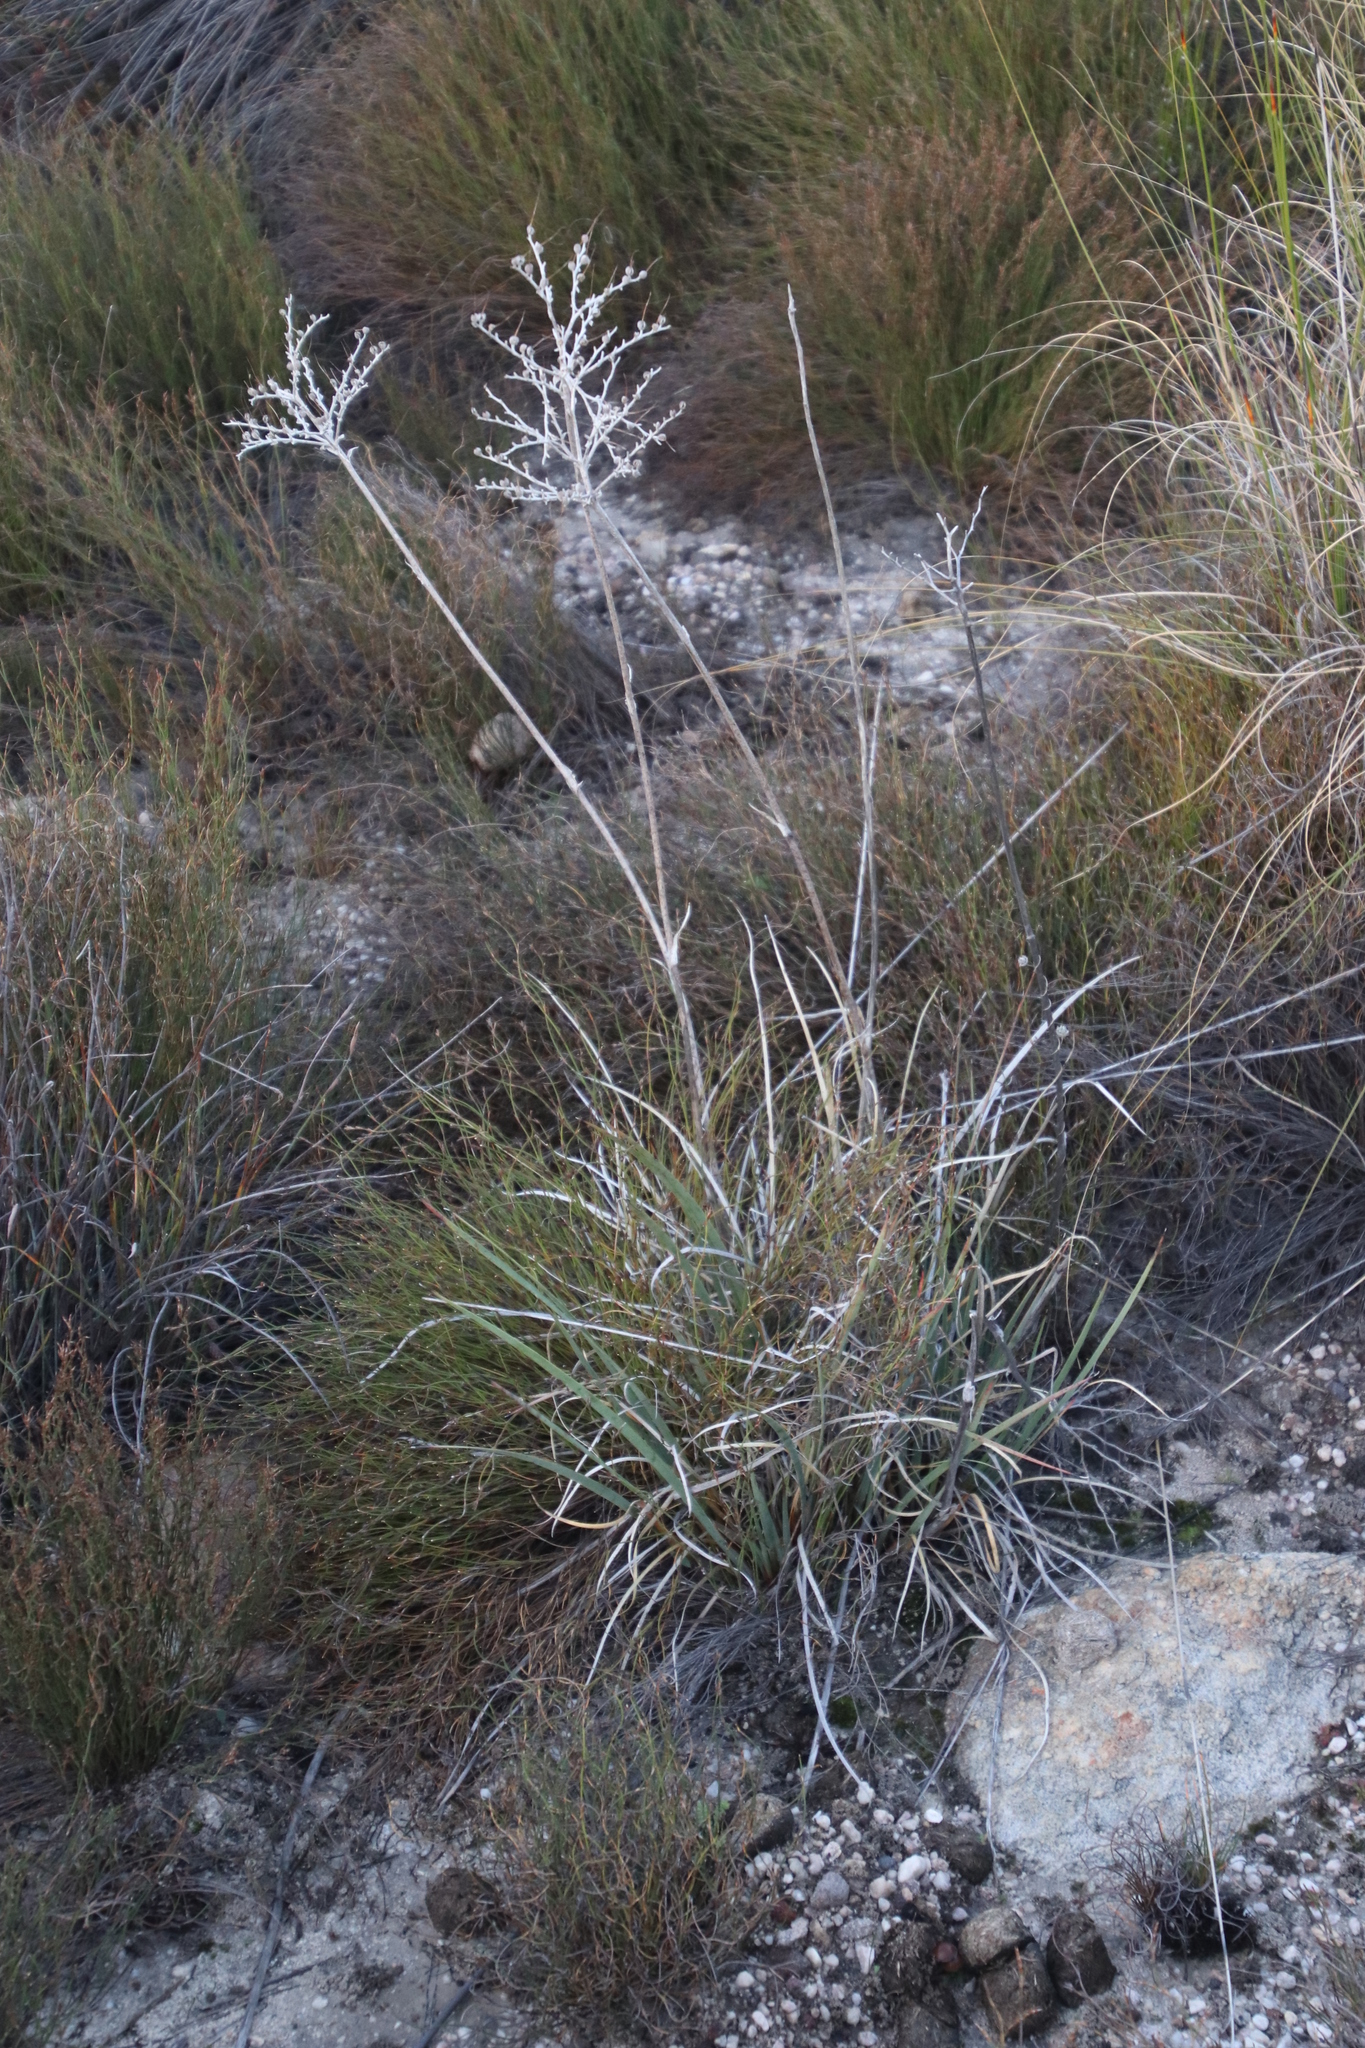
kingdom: Plantae
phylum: Tracheophyta
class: Liliopsida
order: Commelinales
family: Haemodoraceae
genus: Dilatris
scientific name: Dilatris ixioides
